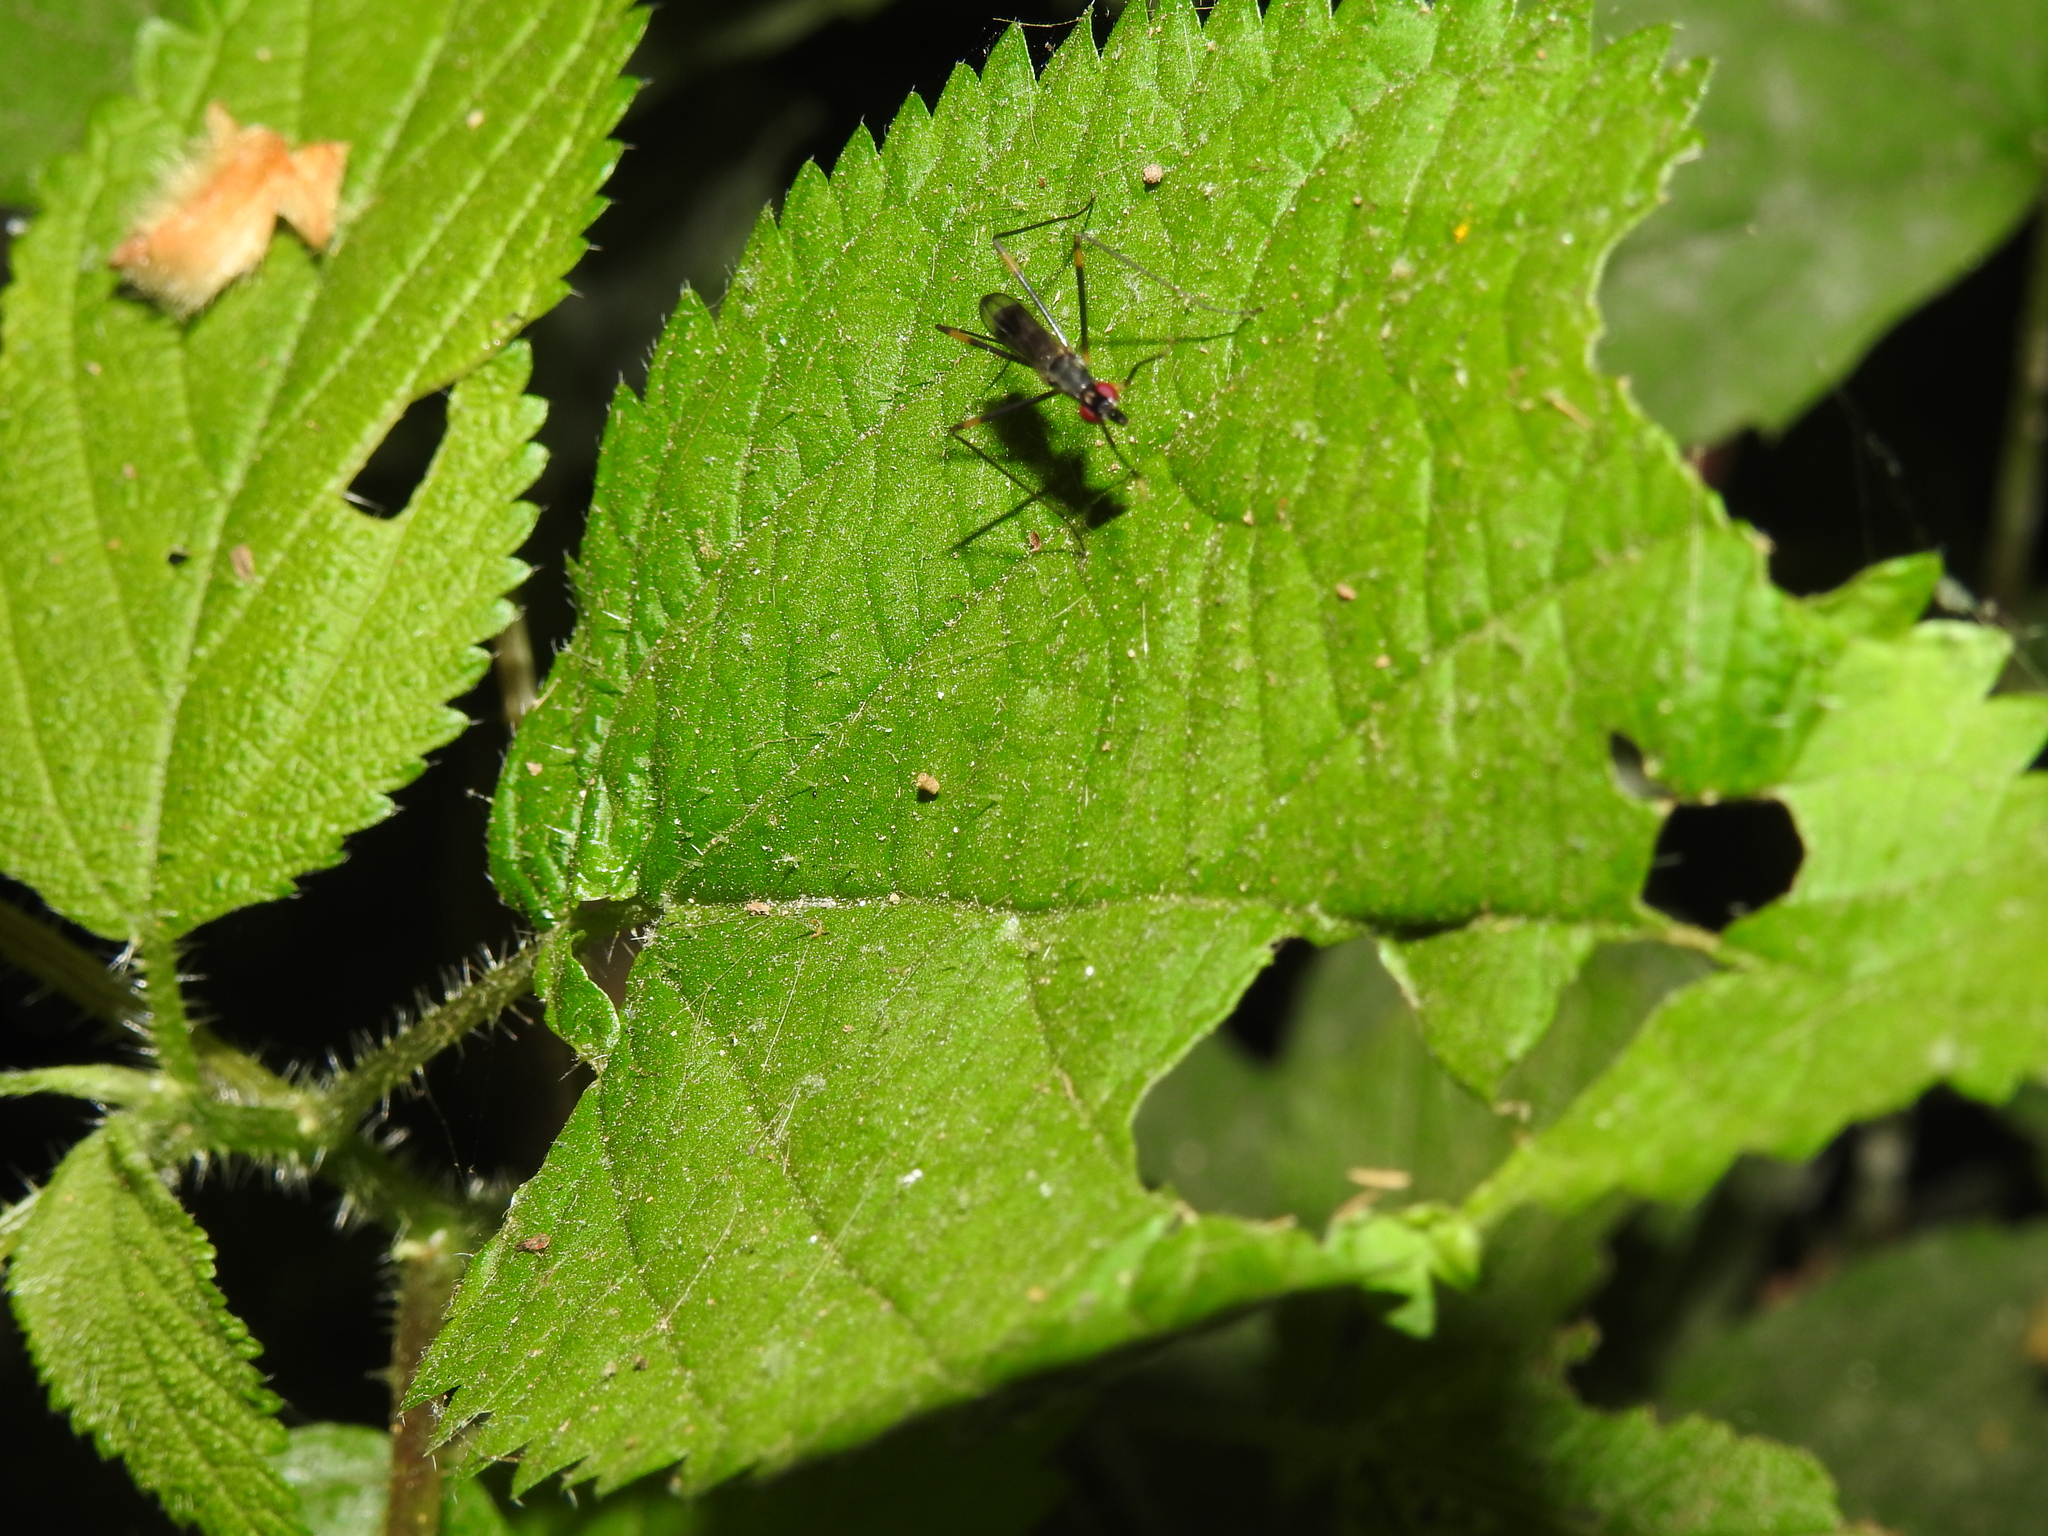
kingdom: Animalia
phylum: Arthropoda
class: Insecta
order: Diptera
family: Micropezidae
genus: Rainieria
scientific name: Rainieria antennaepes
